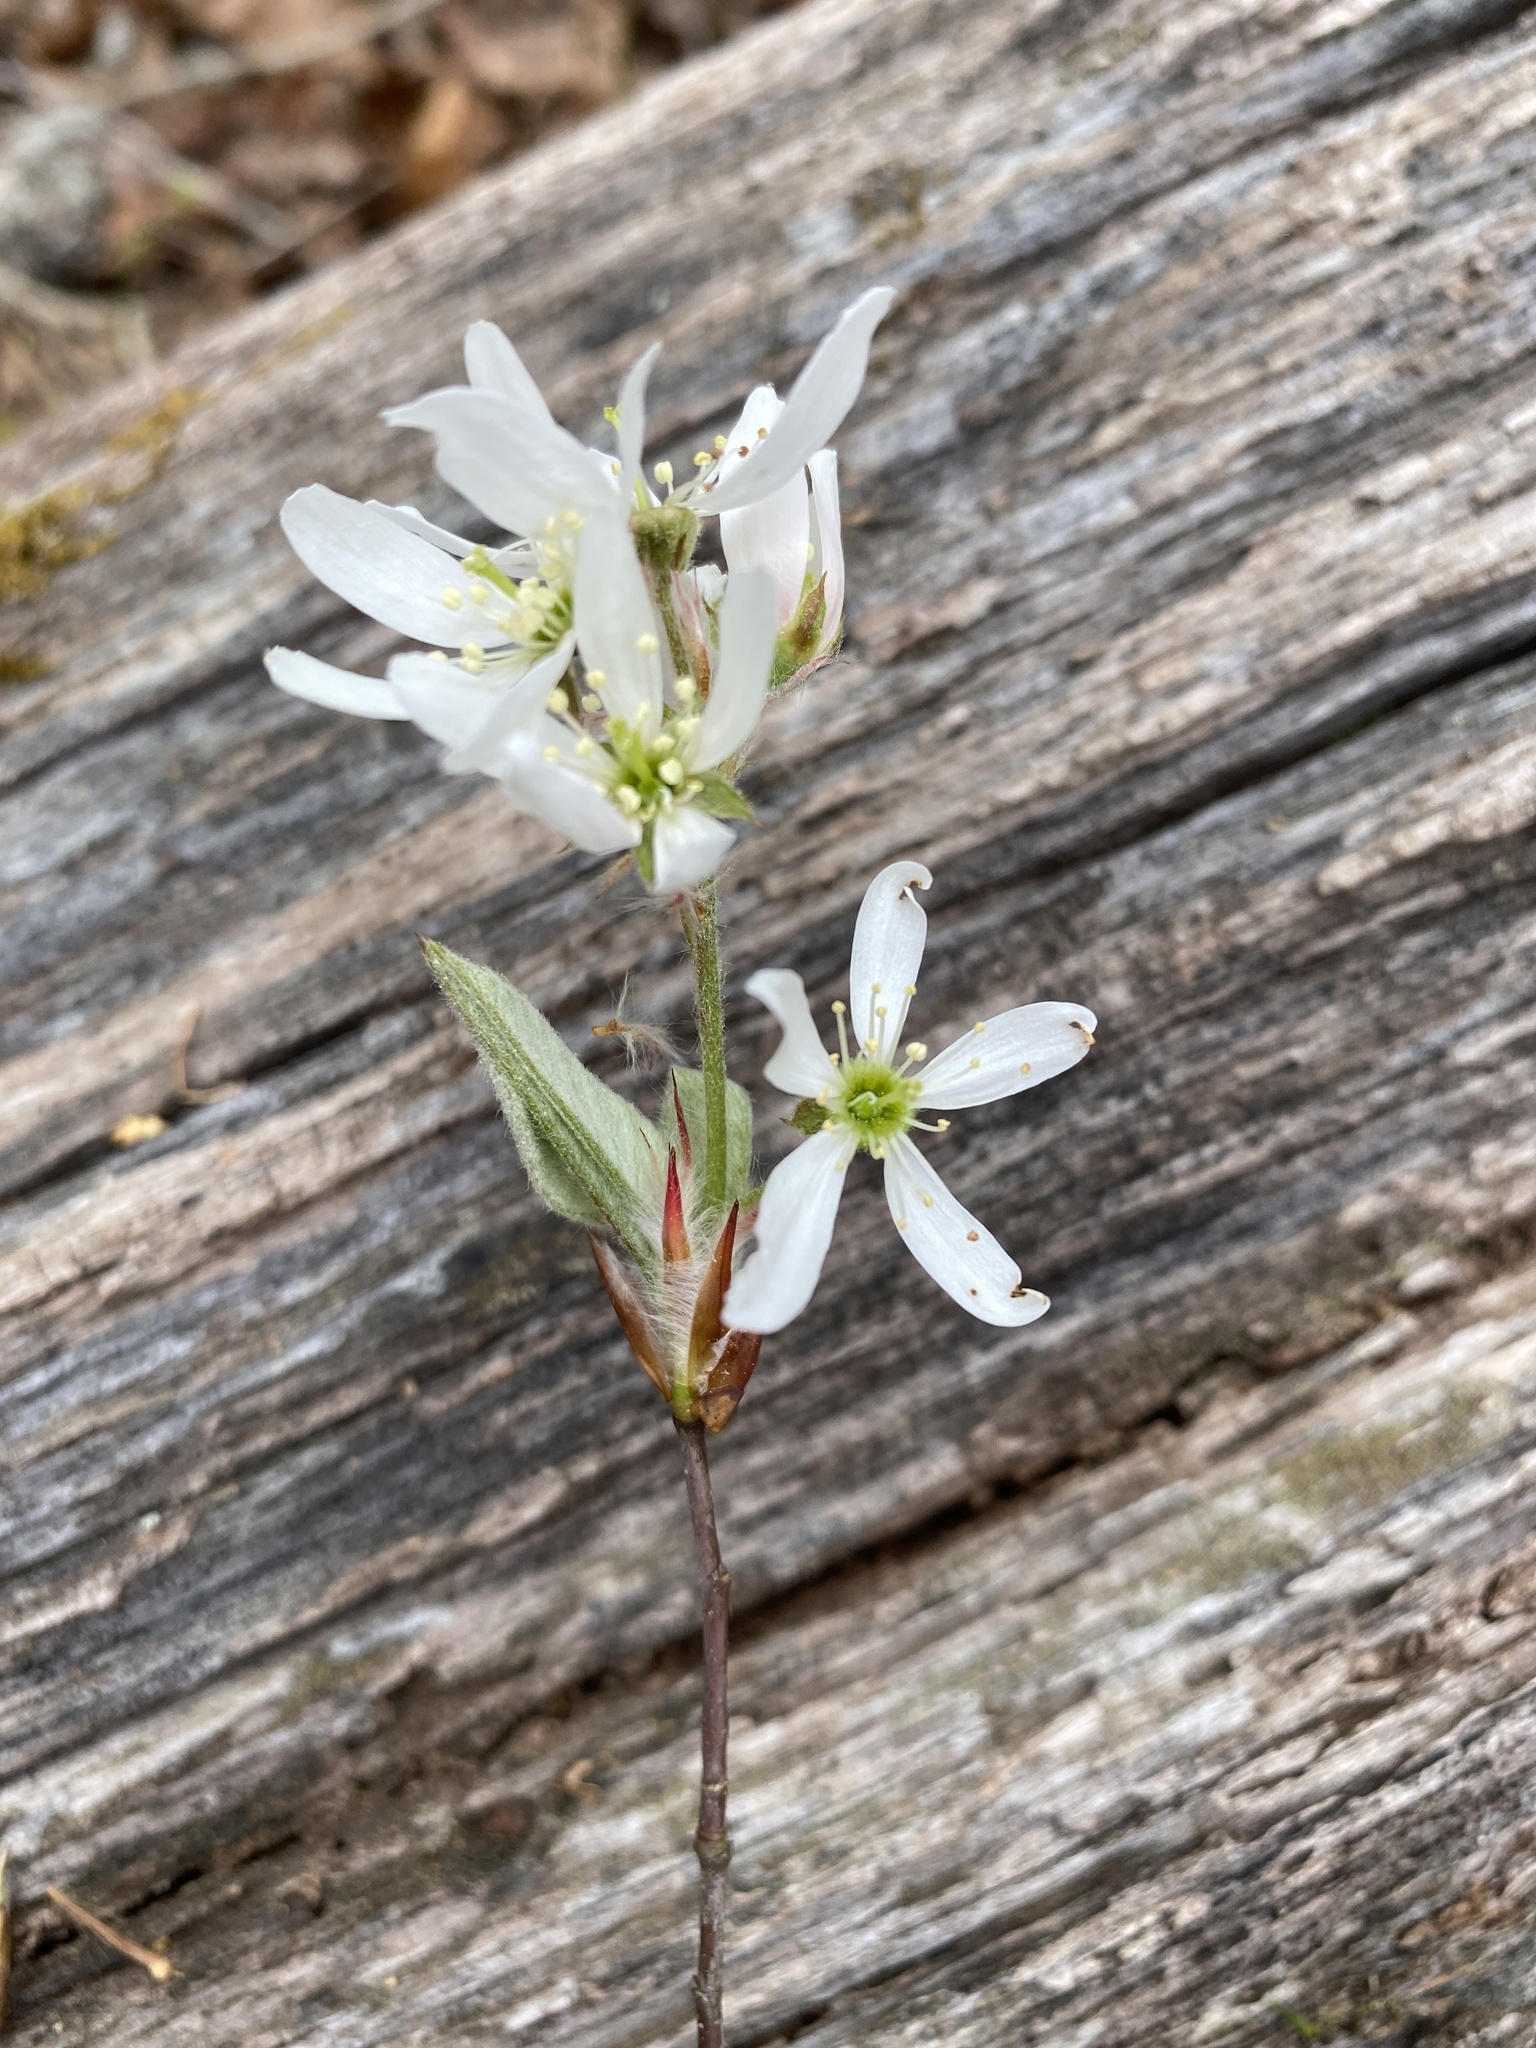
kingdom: Plantae
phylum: Tracheophyta
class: Magnoliopsida
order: Rosales
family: Rosaceae
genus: Amelanchier
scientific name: Amelanchier arborea
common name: Downy serviceberry
